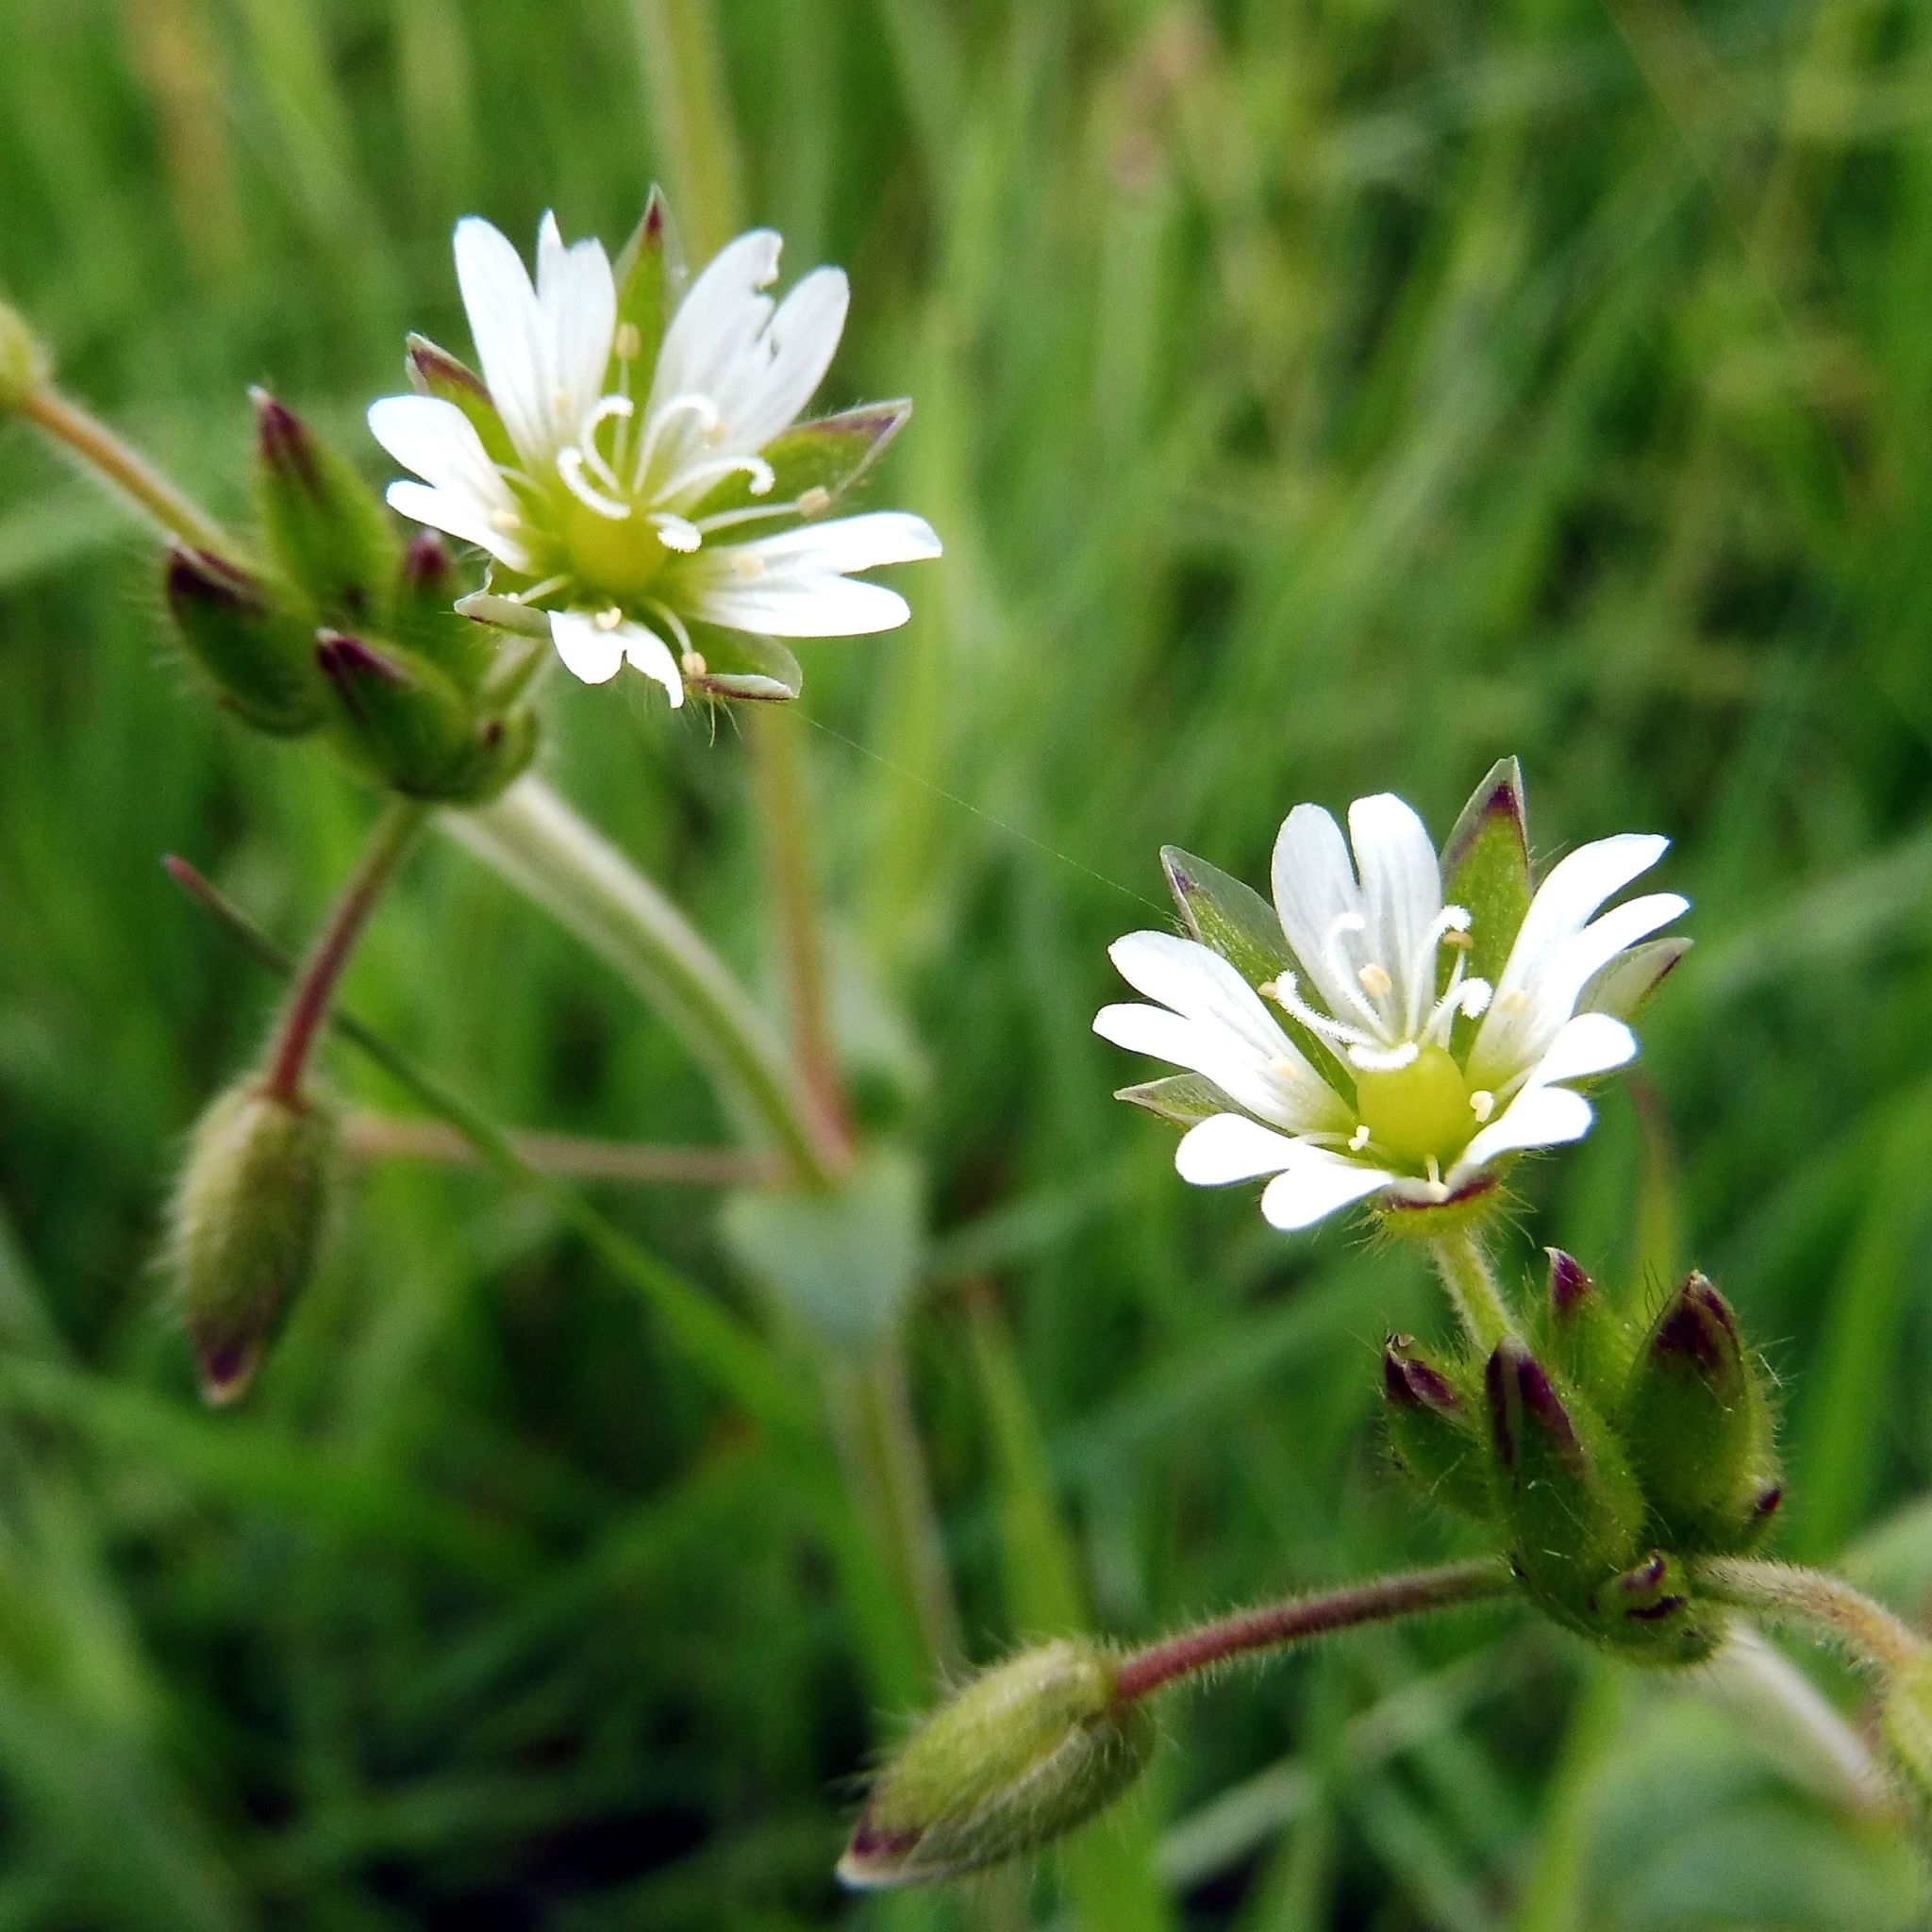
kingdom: Plantae
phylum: Tracheophyta
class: Magnoliopsida
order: Caryophyllales
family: Caryophyllaceae
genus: Cerastium
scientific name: Cerastium fontanum
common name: Common mouse-ear
